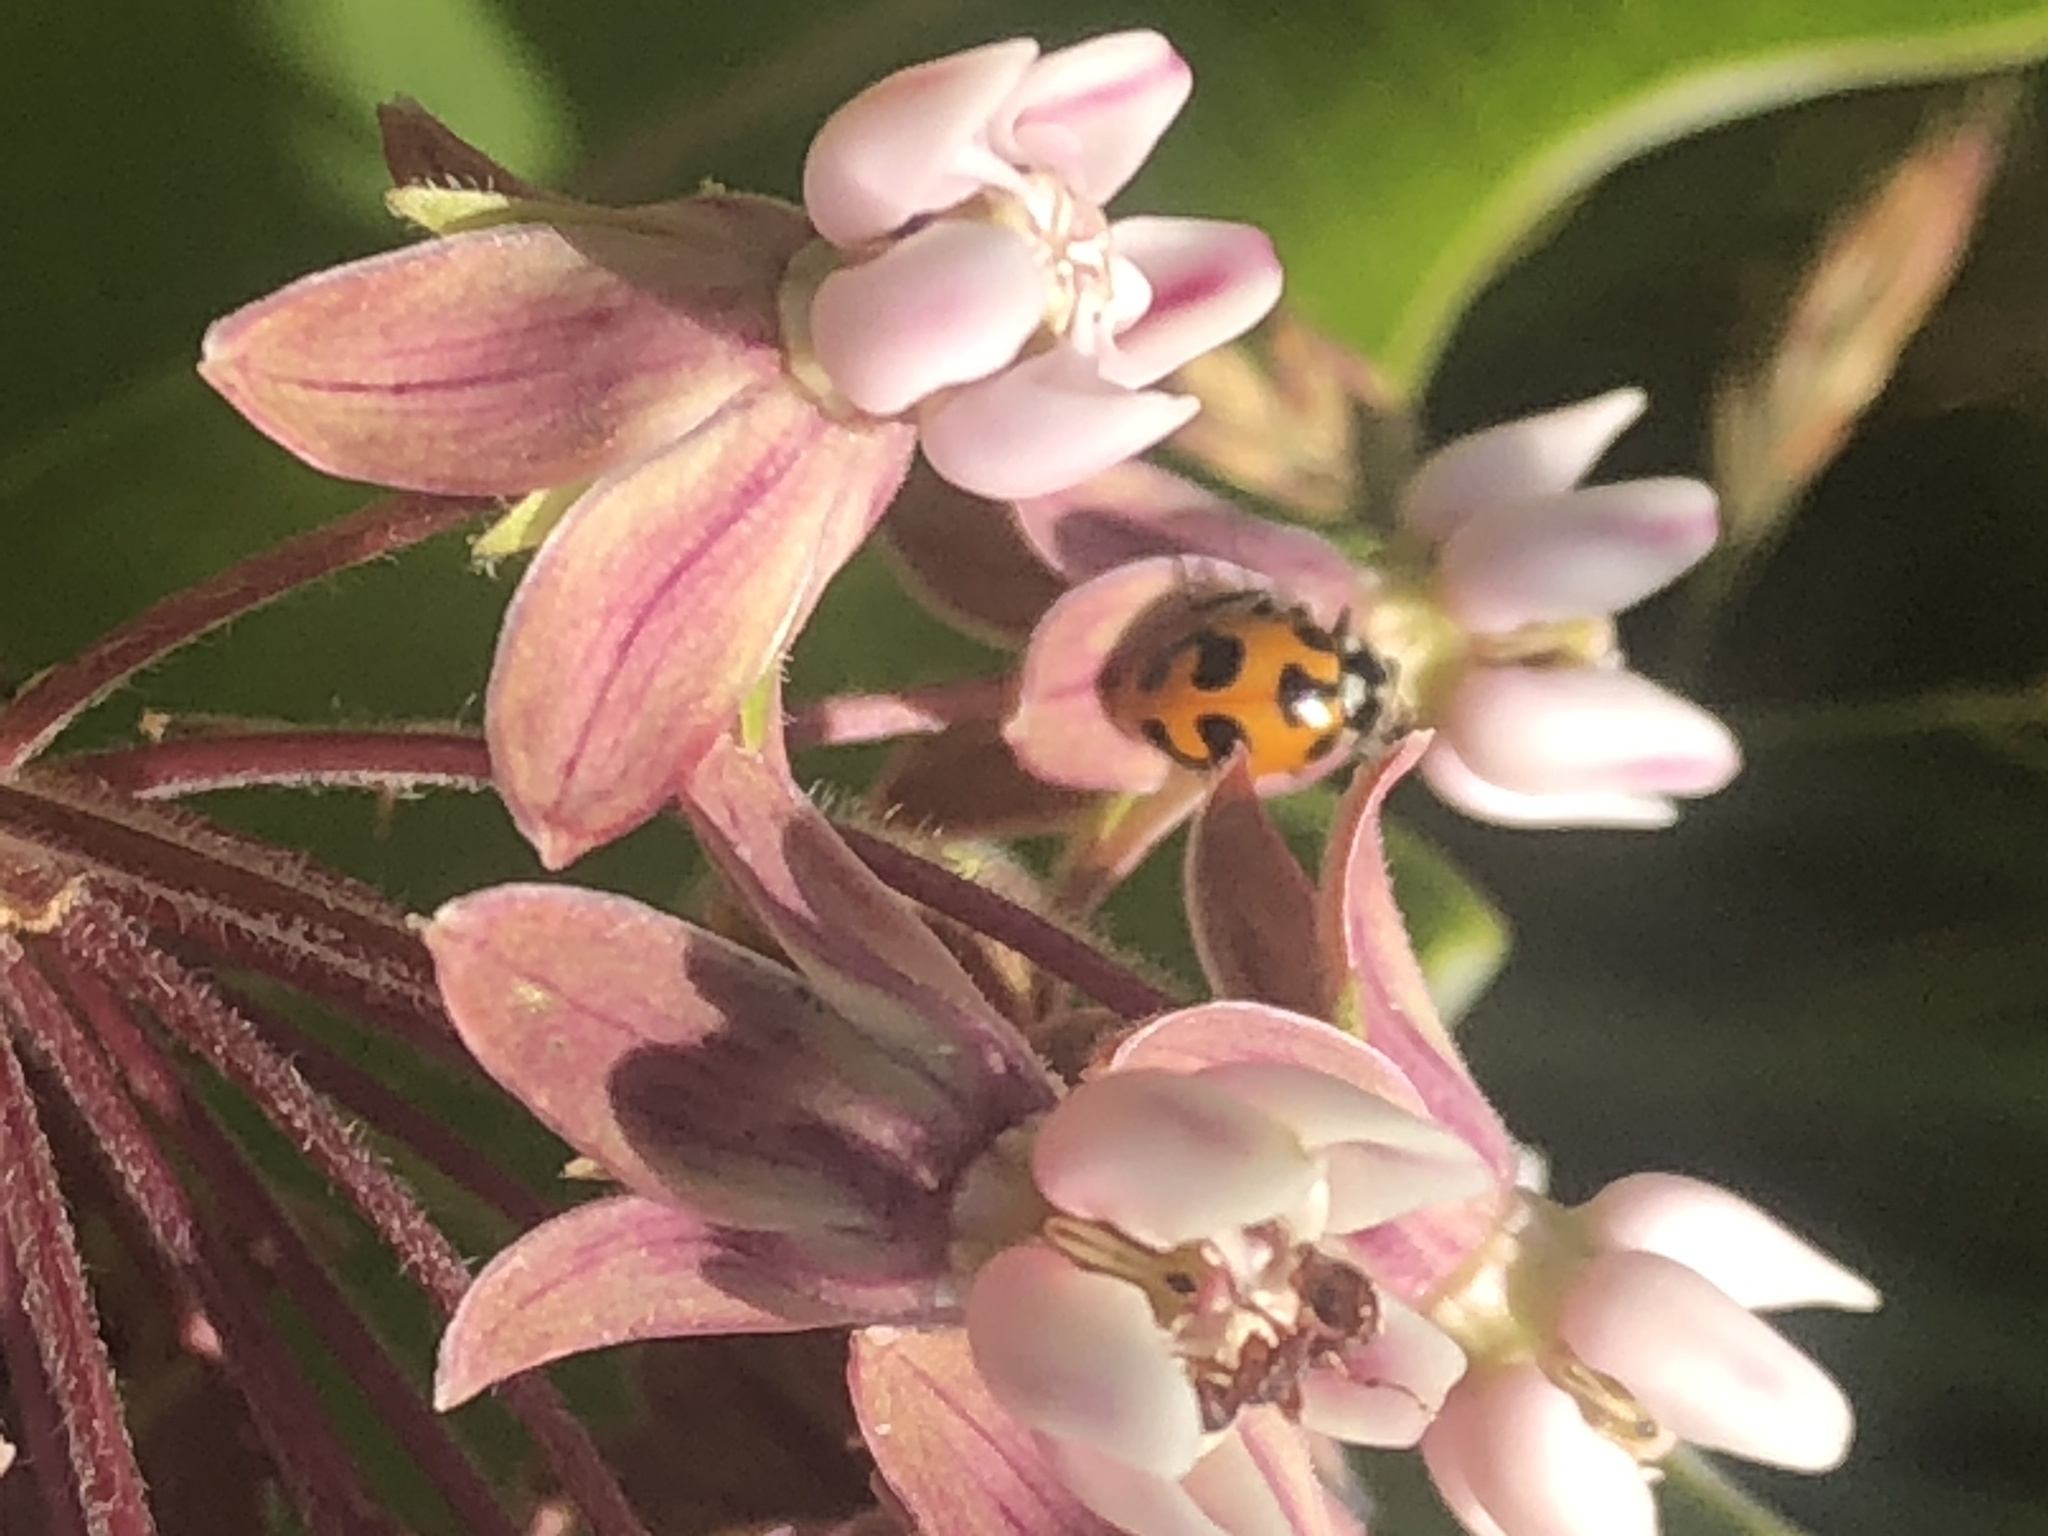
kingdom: Animalia
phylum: Arthropoda
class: Insecta
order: Coleoptera
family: Coccinellidae
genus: Hippodamia
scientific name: Hippodamia parenthesis
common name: Parenthesis lady beetle
